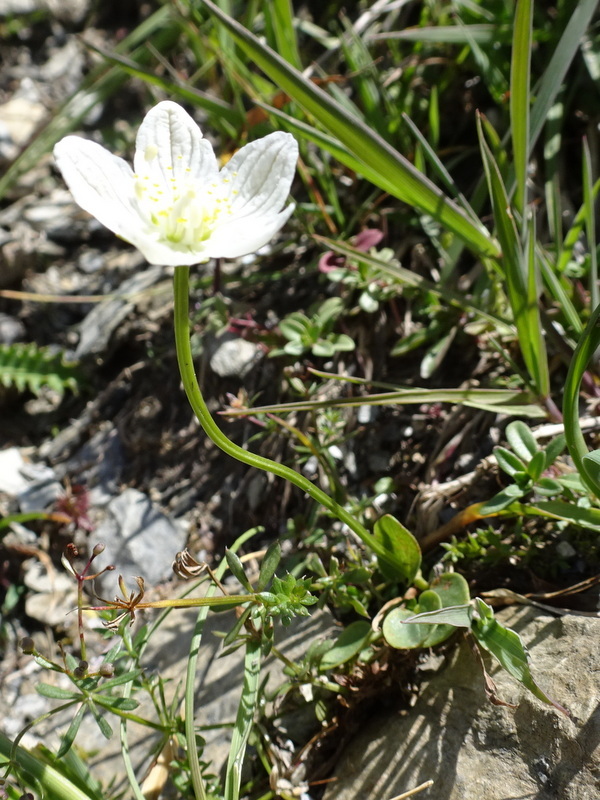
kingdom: Plantae
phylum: Tracheophyta
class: Magnoliopsida
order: Celastrales
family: Parnassiaceae
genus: Parnassia
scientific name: Parnassia palustris
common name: Grass-of-parnassus
